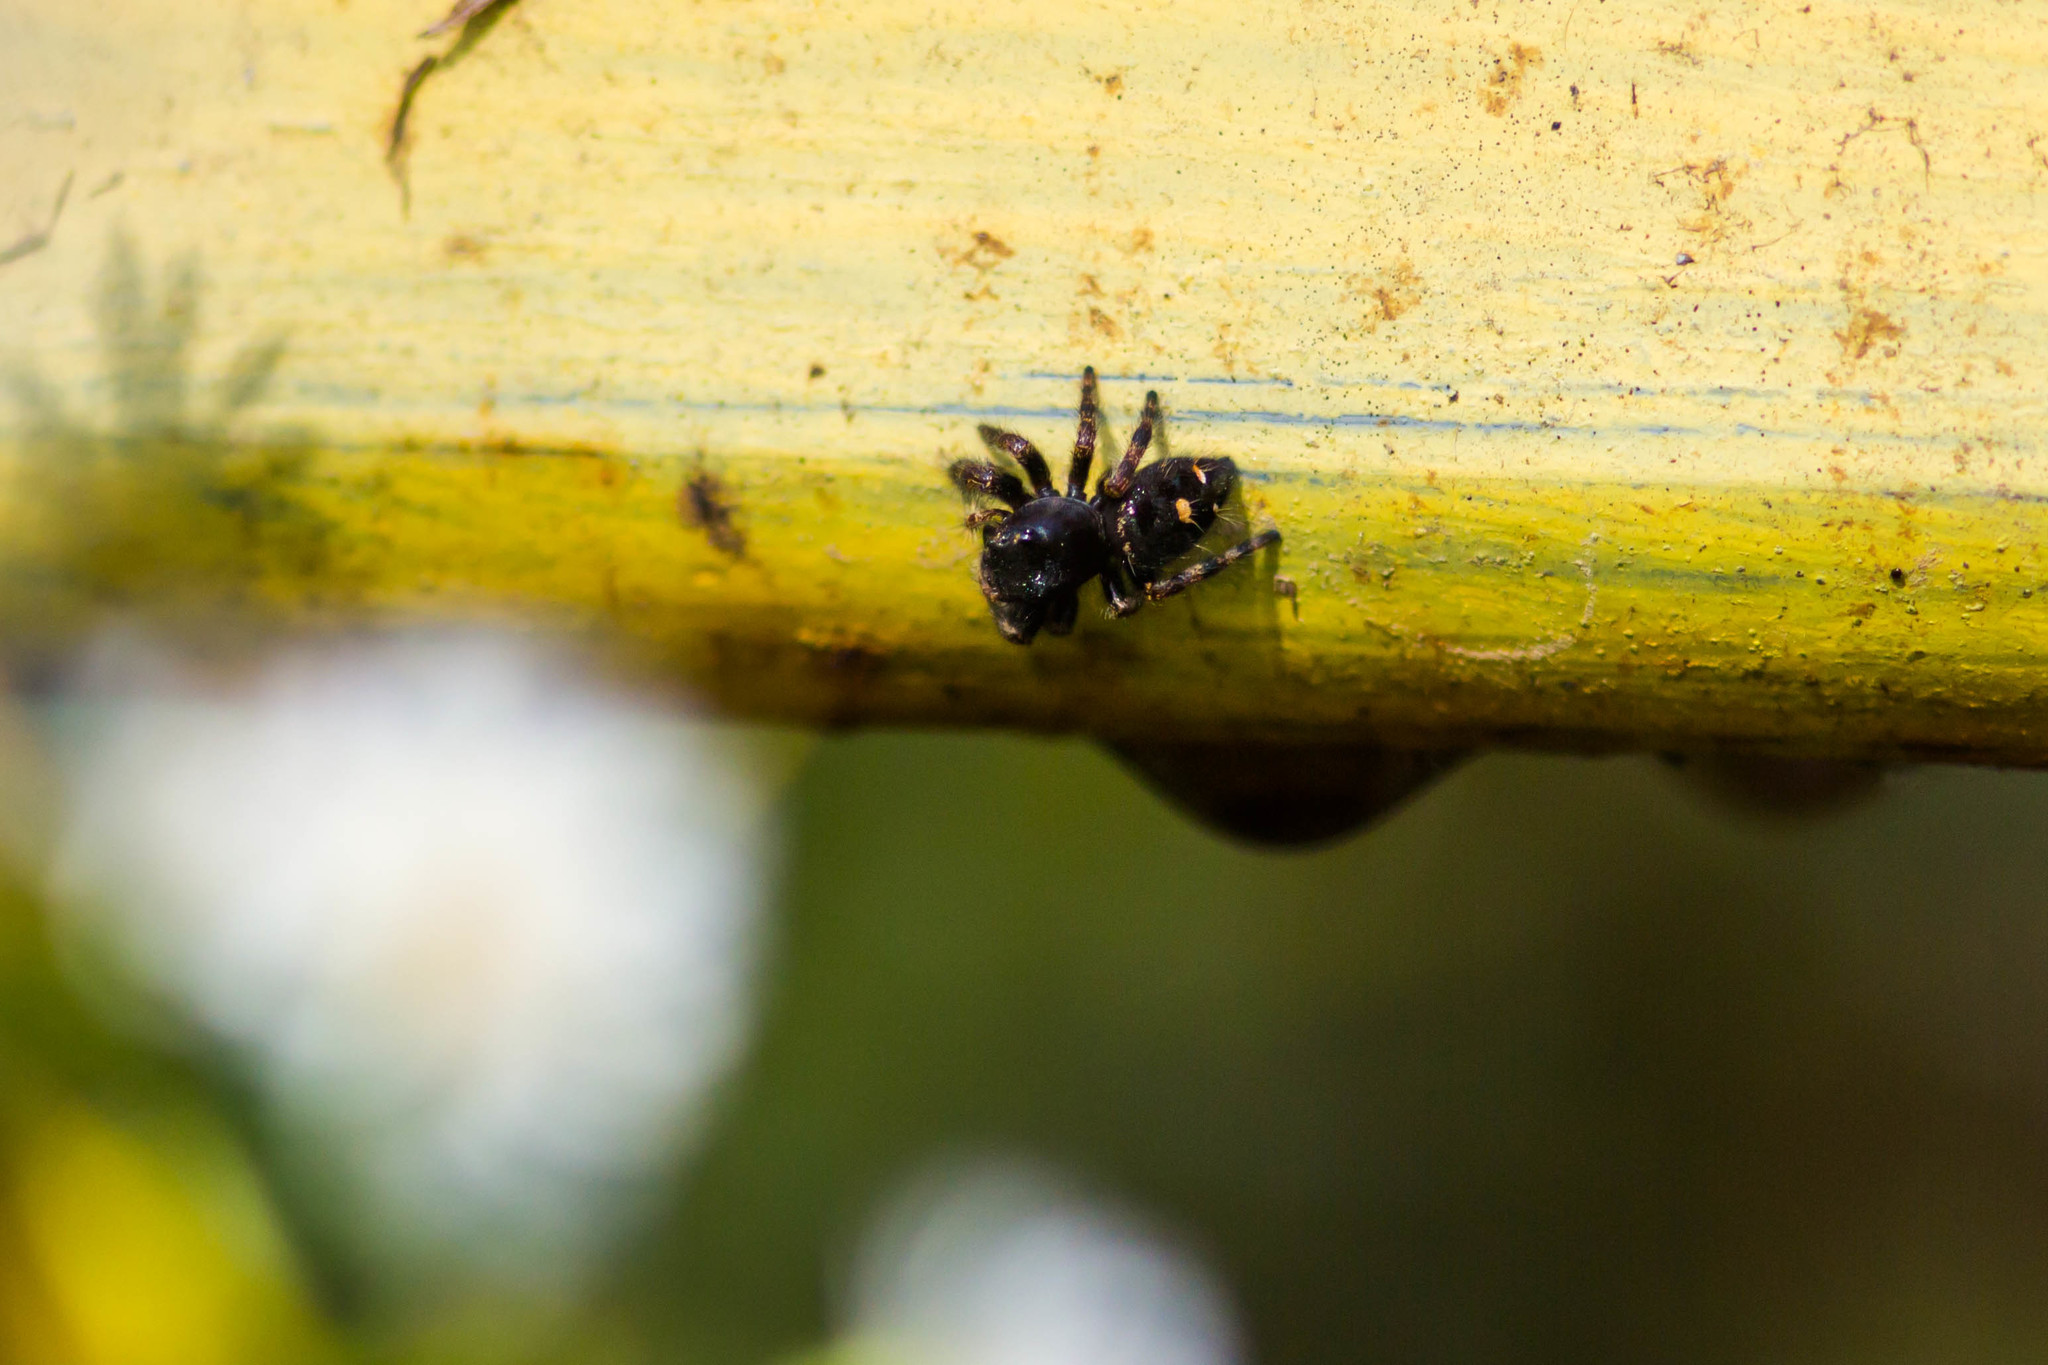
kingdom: Animalia
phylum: Arthropoda
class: Arachnida
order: Araneae
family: Salticidae
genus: Phidippus
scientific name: Phidippus audax
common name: Bold jumper
